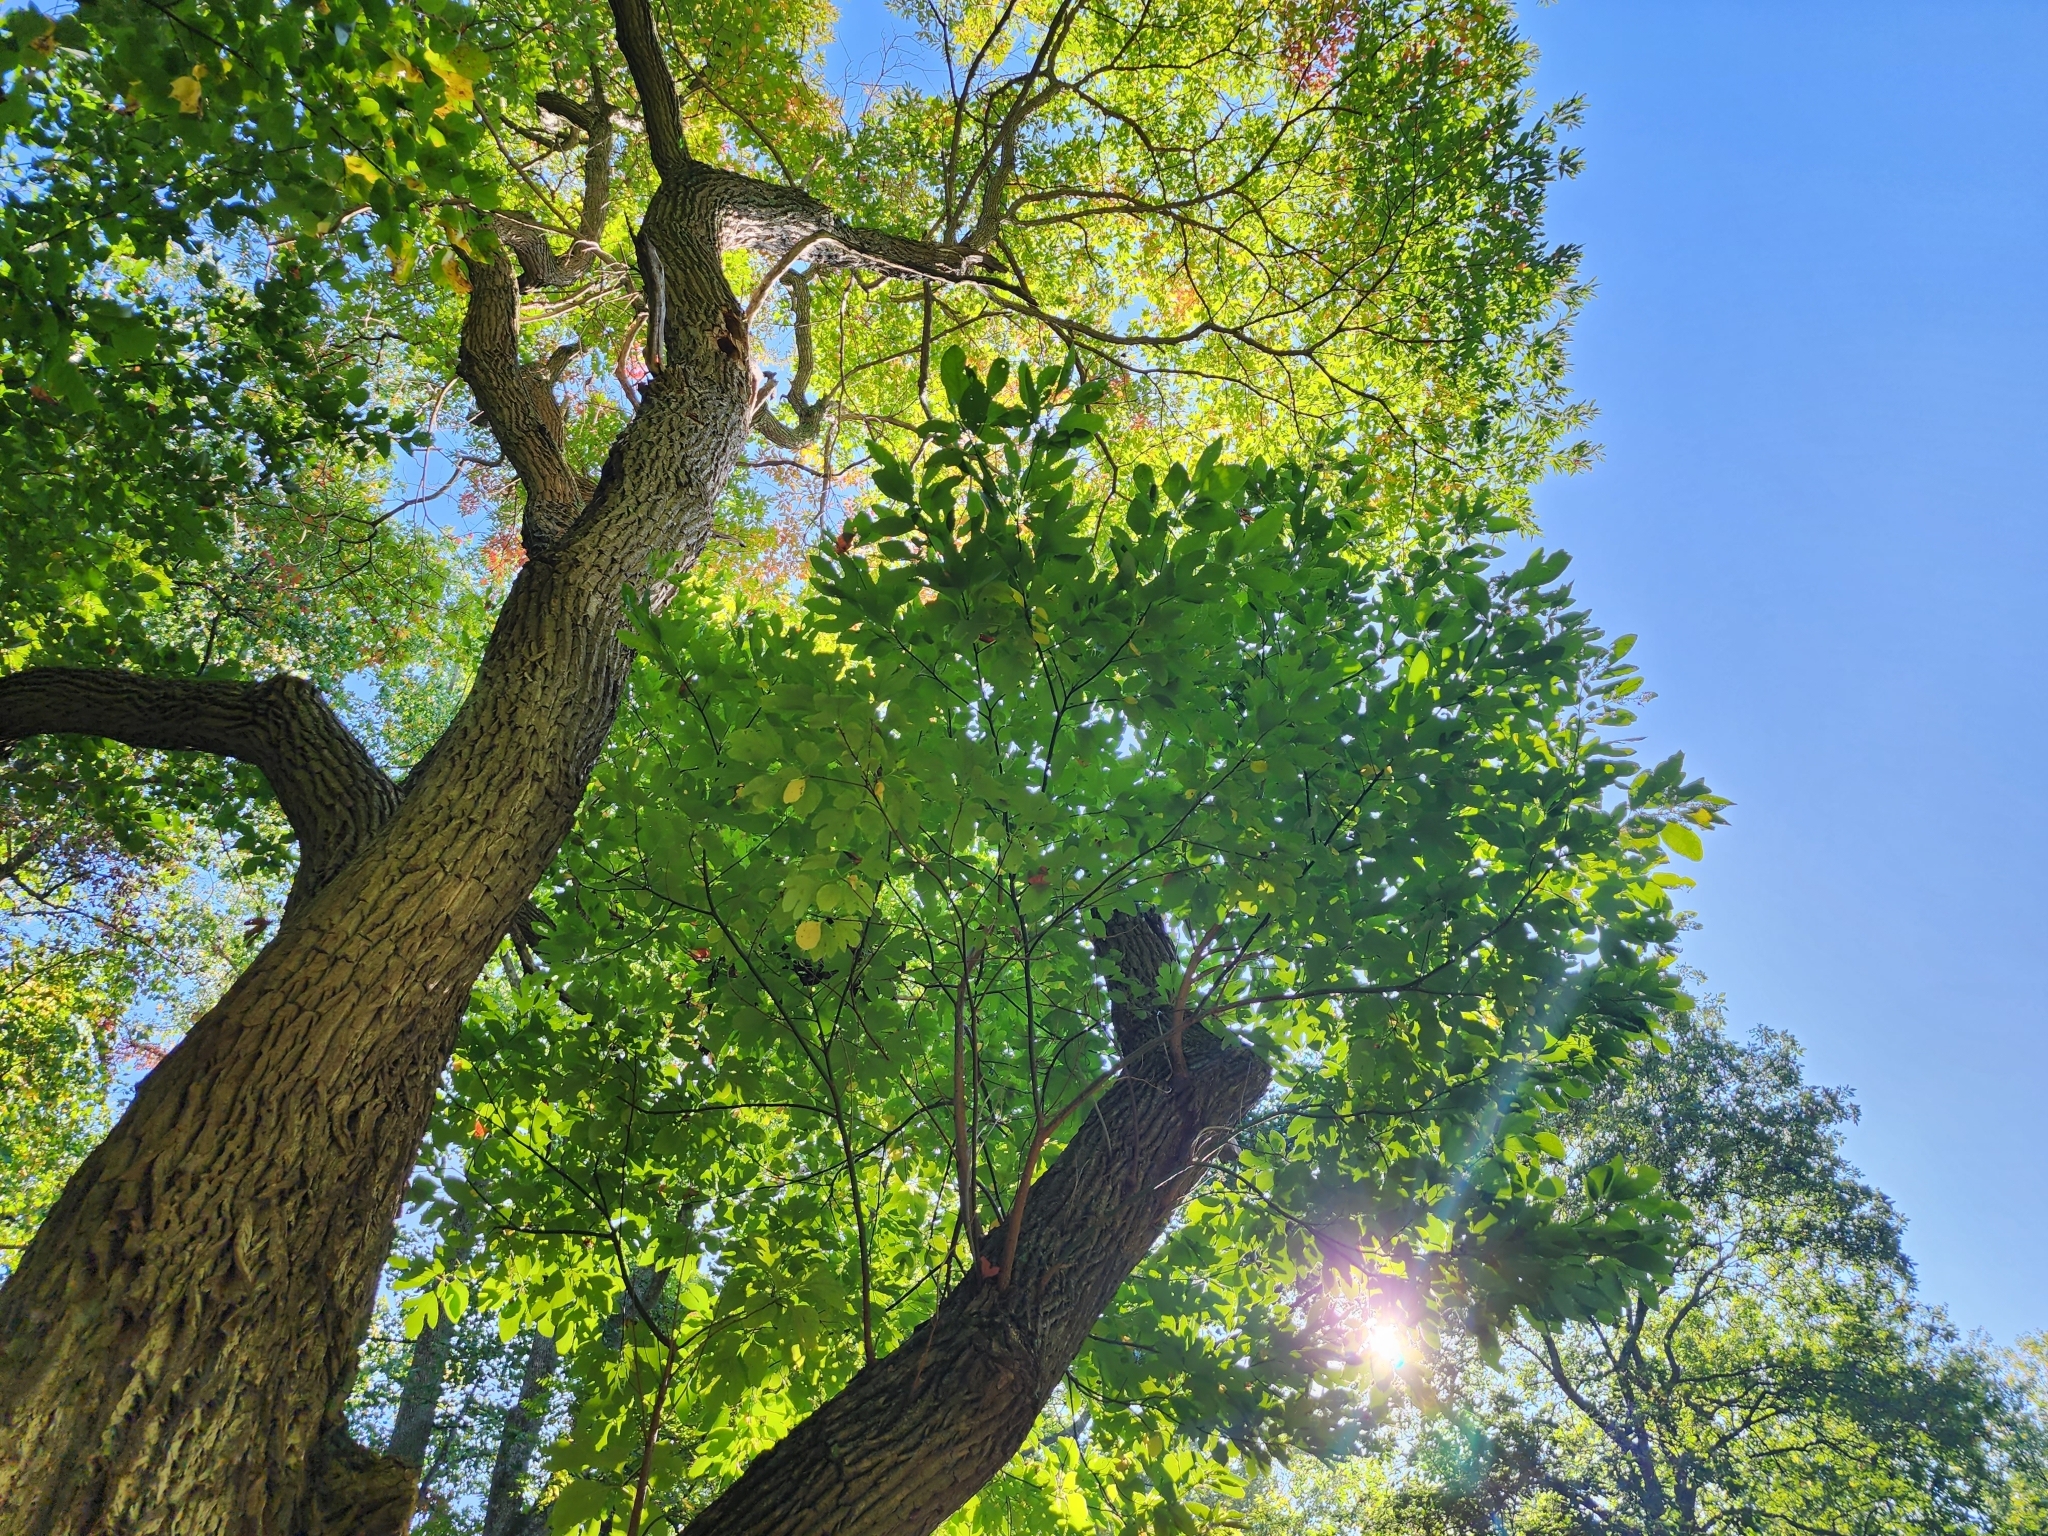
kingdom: Plantae
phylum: Tracheophyta
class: Magnoliopsida
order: Laurales
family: Lauraceae
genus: Sassafras
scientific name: Sassafras albidum
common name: Sassafras
